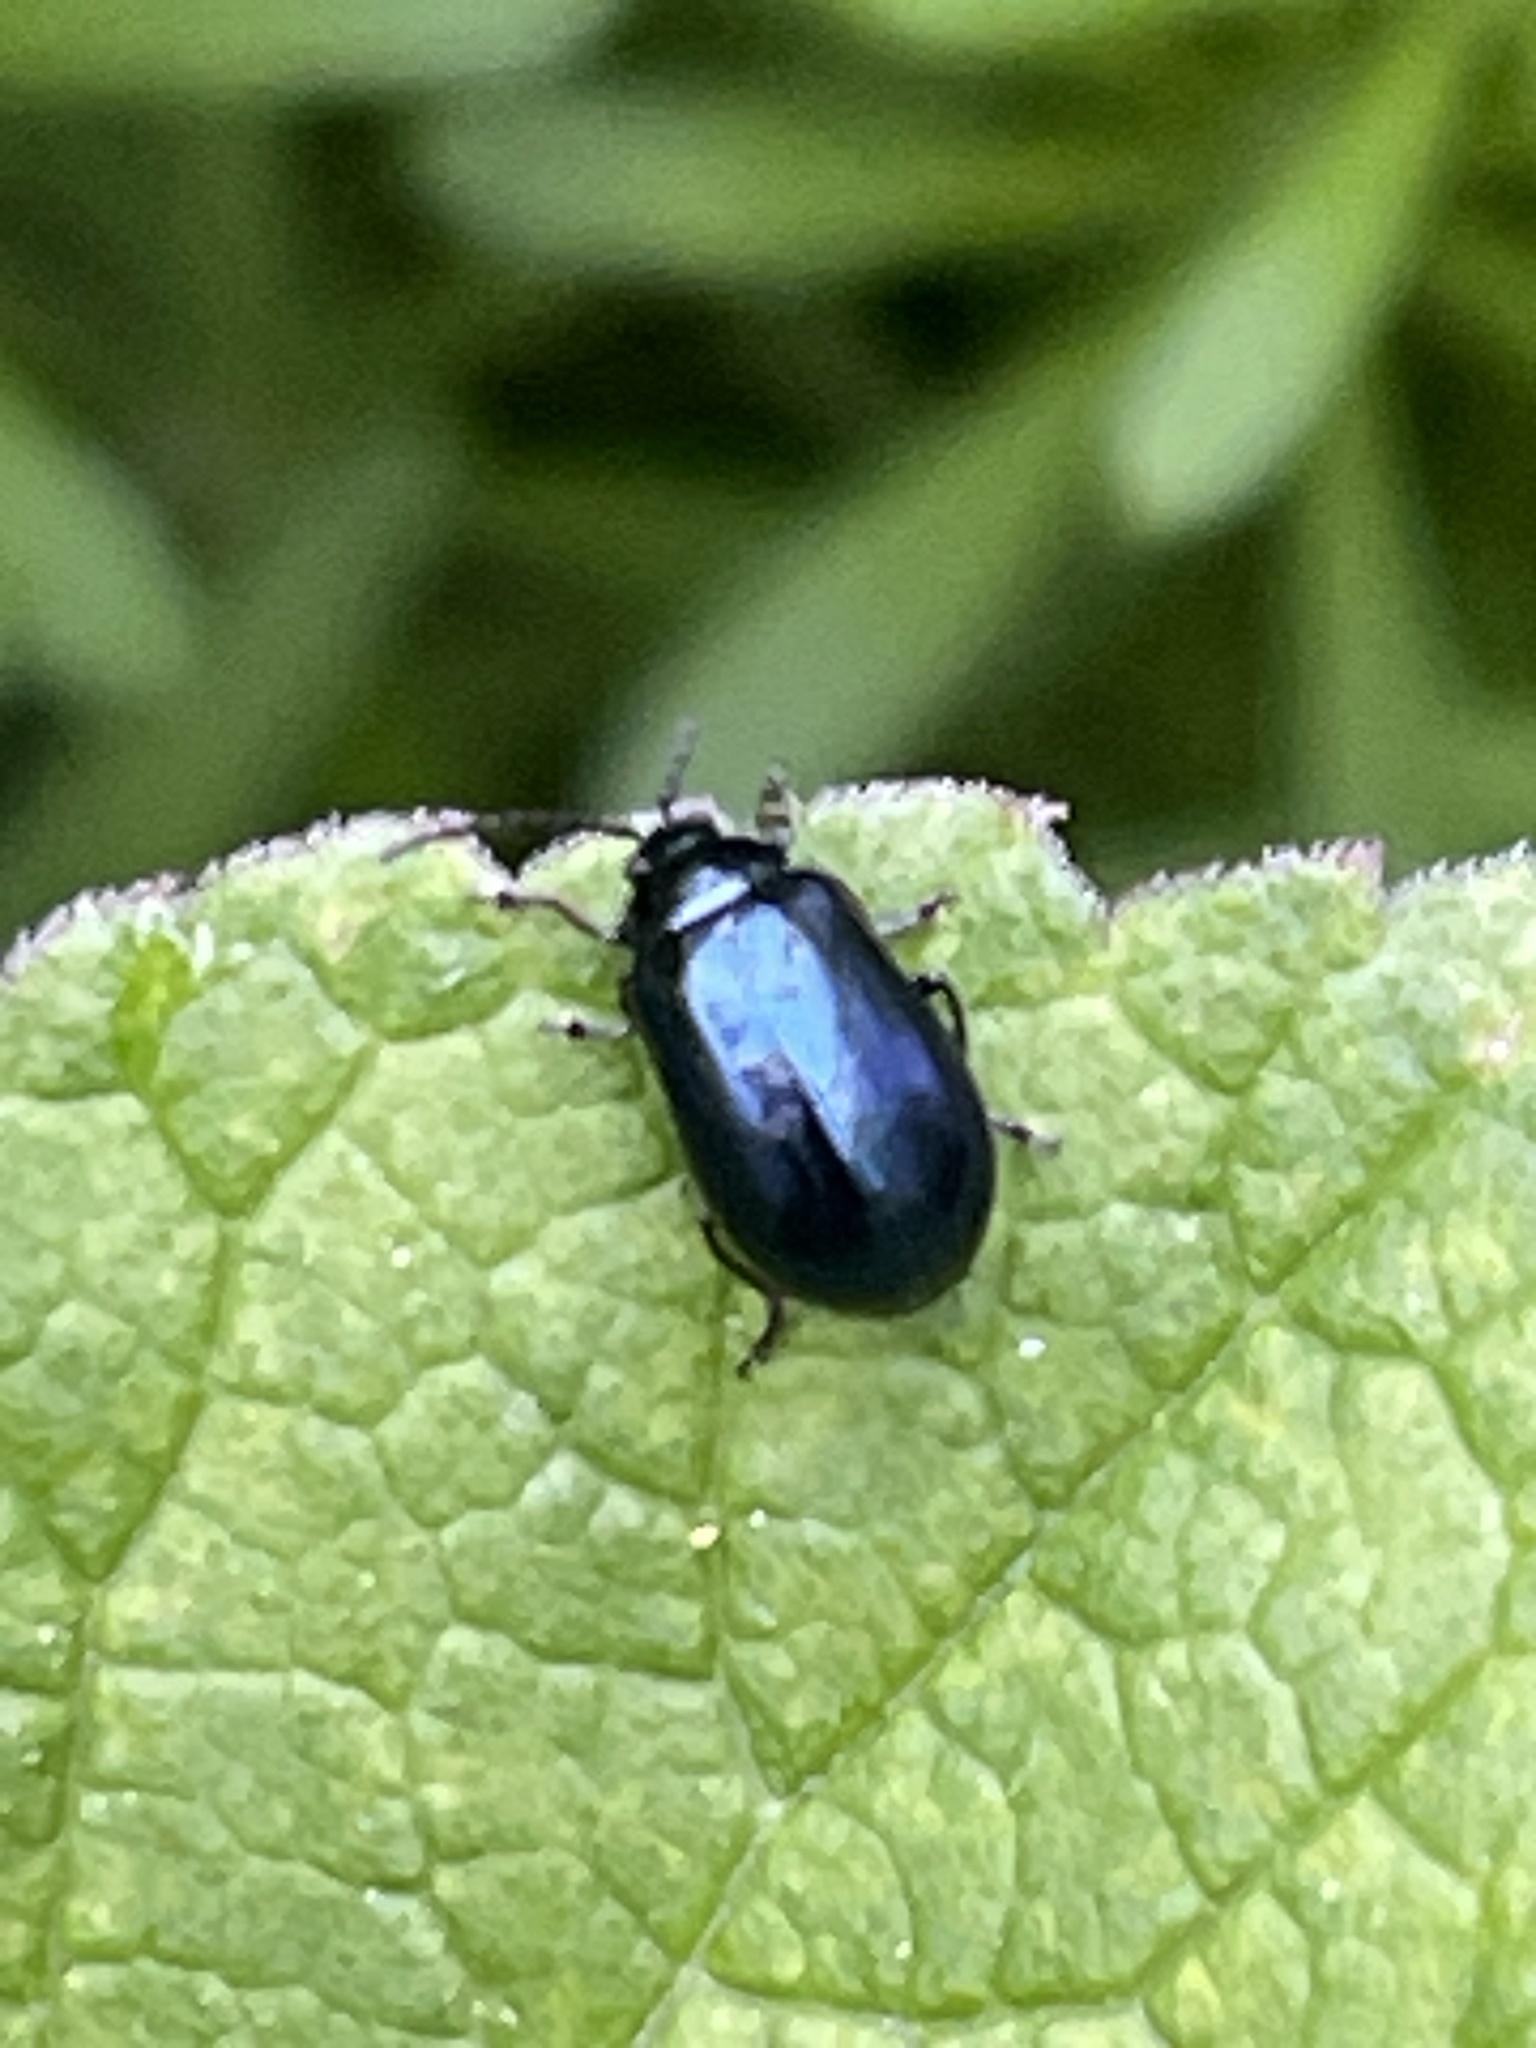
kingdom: Animalia
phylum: Arthropoda
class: Insecta
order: Coleoptera
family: Chrysomelidae
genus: Agelastica
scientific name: Agelastica alni
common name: Alder leaf beetle
